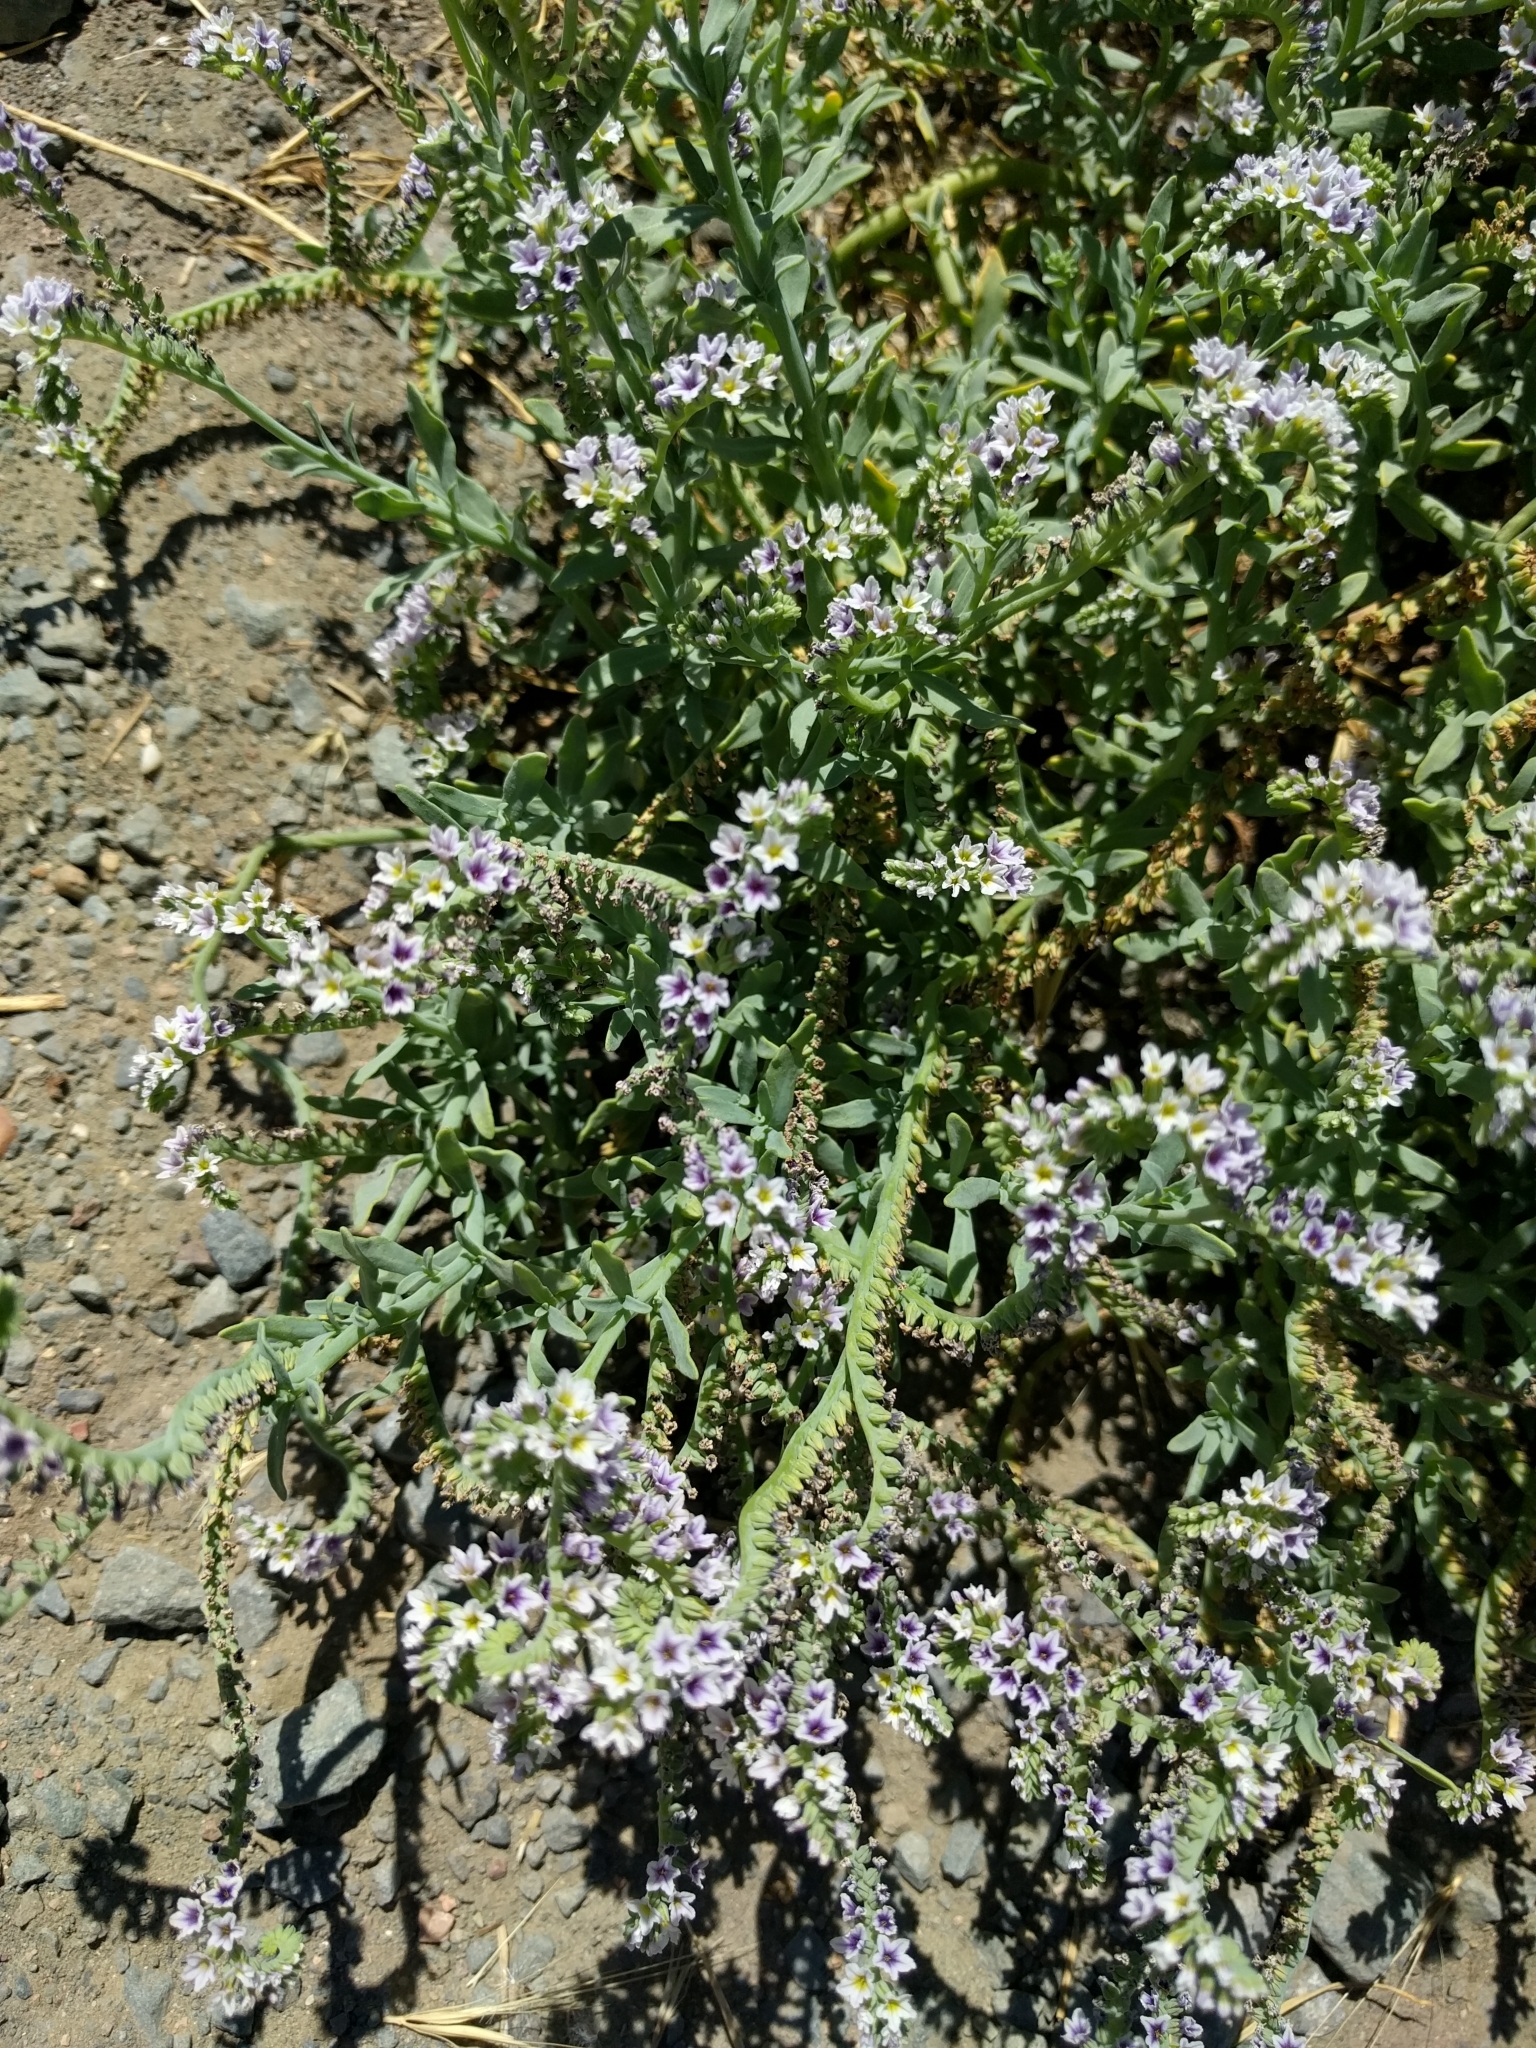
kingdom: Plantae
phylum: Tracheophyta
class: Magnoliopsida
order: Boraginales
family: Heliotropiaceae
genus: Heliotropium
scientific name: Heliotropium curassavicum
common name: Seaside heliotrope
